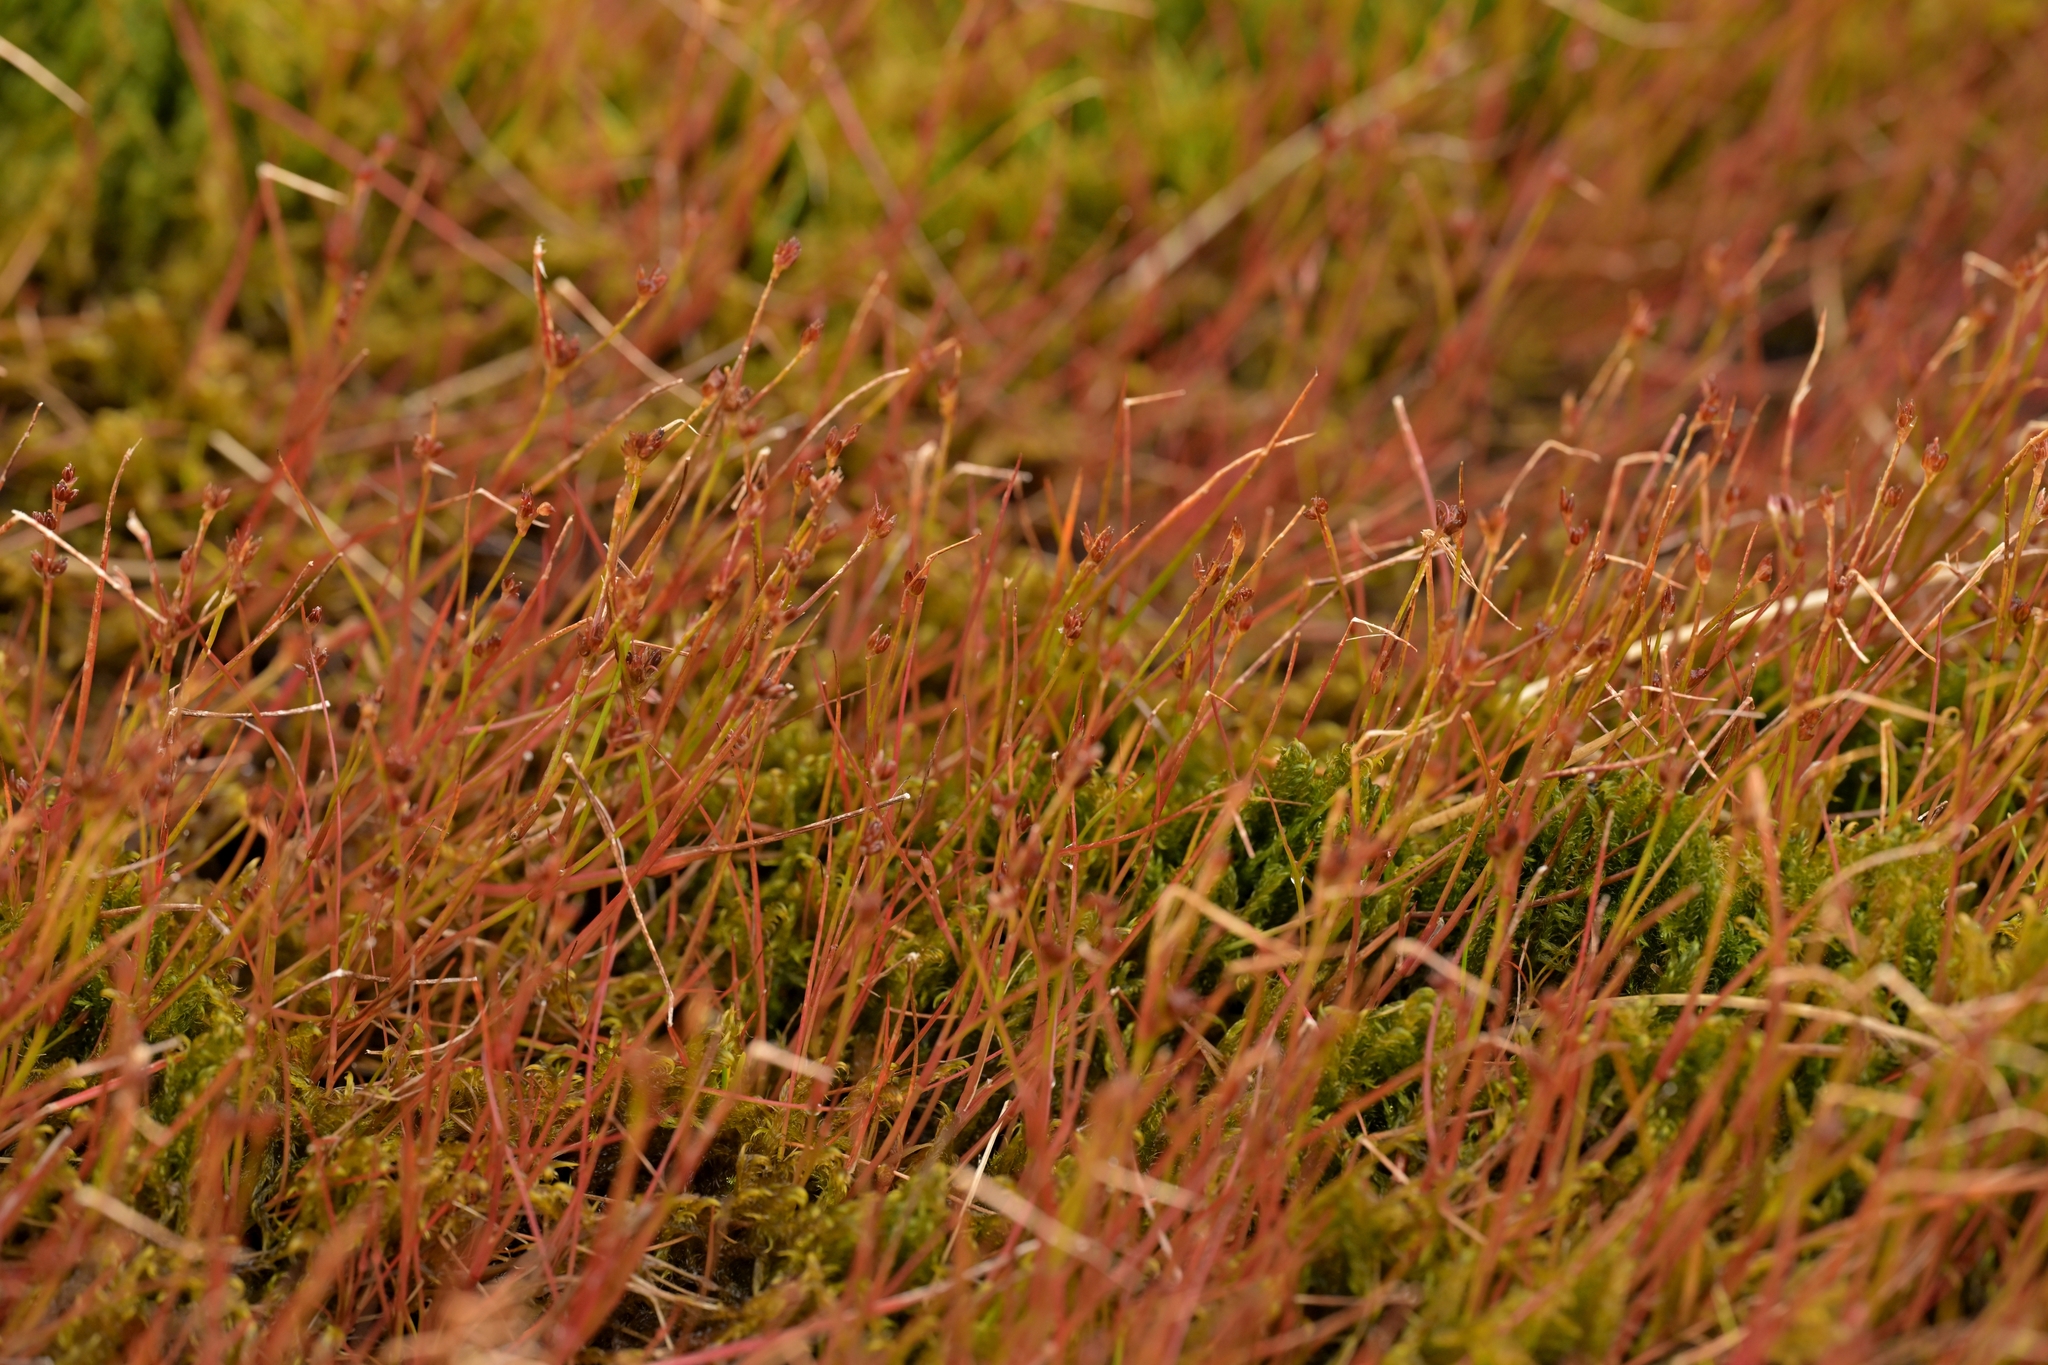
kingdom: Plantae
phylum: Tracheophyta
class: Liliopsida
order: Poales
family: Juncaceae
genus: Juncus
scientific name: Juncus bulbosus
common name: Bulbous rush
